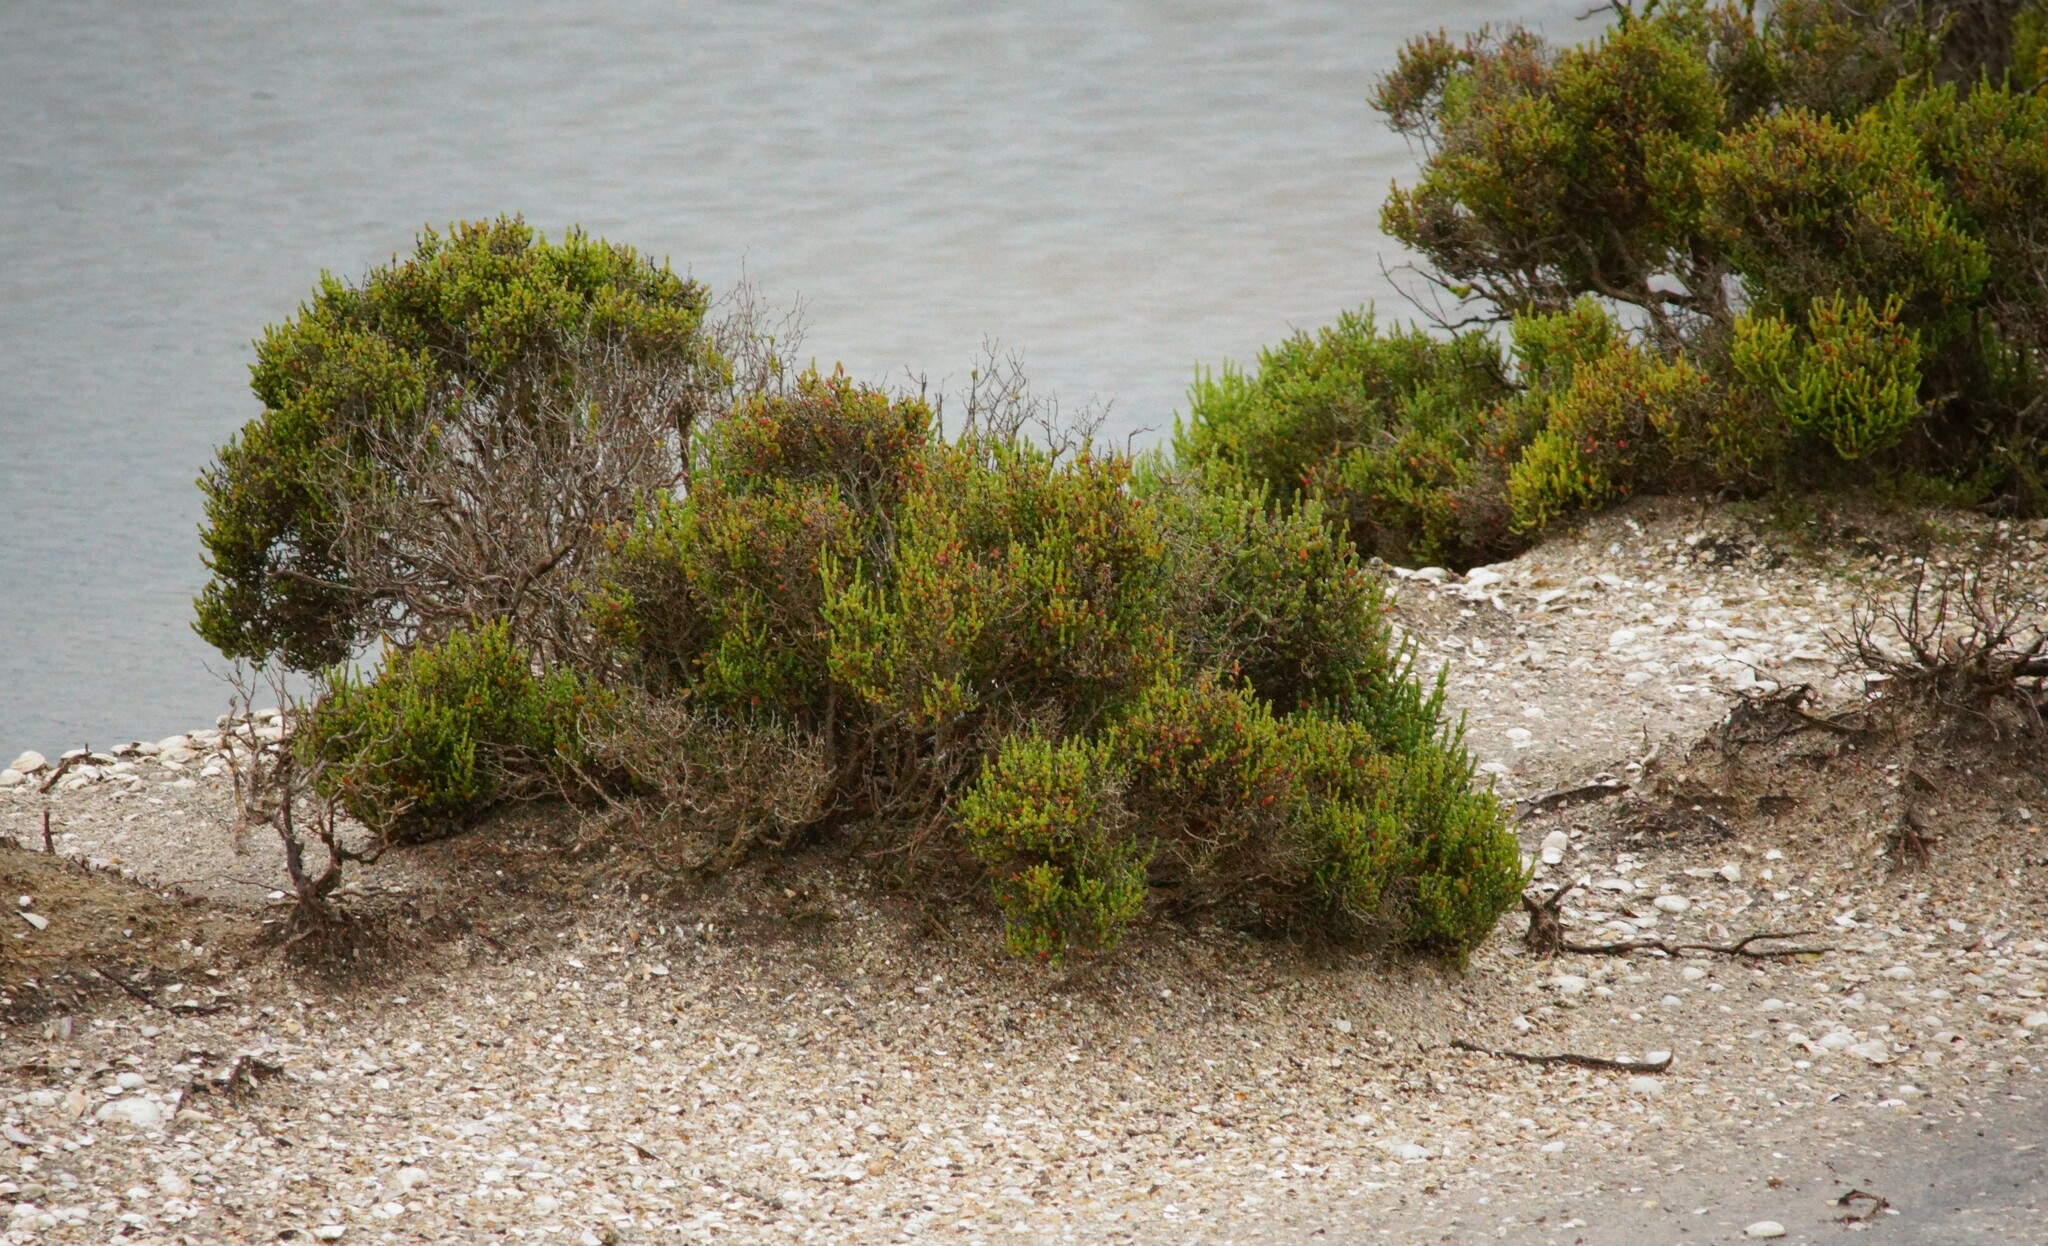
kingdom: Plantae
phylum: Tracheophyta
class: Magnoliopsida
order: Caryophyllales
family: Amaranthaceae
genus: Tecticornia
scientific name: Tecticornia arbuscula
